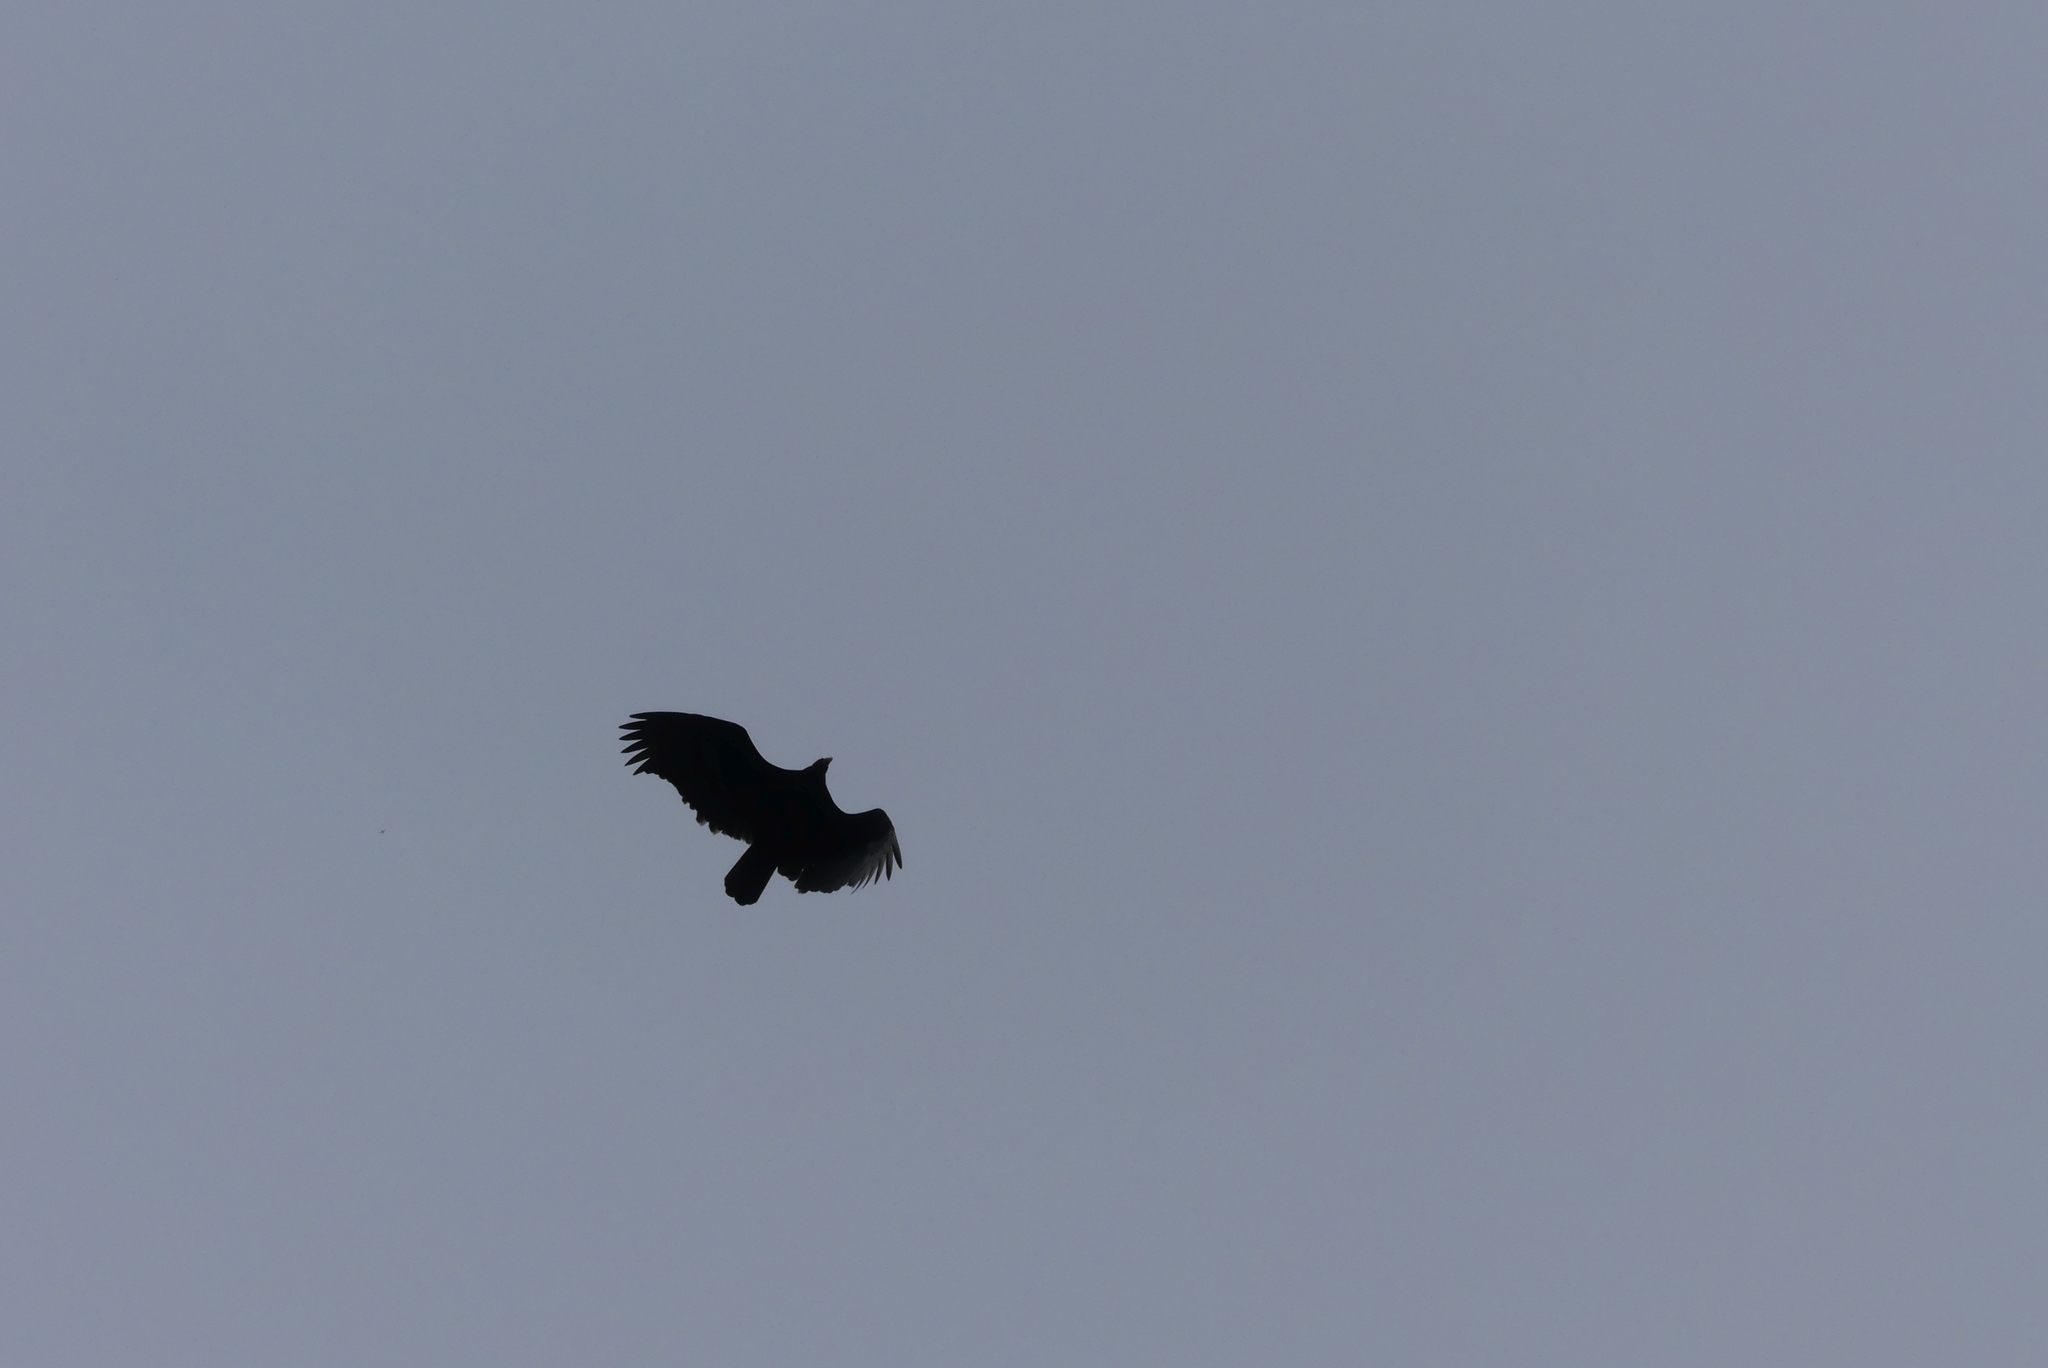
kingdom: Animalia
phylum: Chordata
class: Aves
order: Accipitriformes
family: Cathartidae
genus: Cathartes
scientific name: Cathartes aura
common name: Turkey vulture
